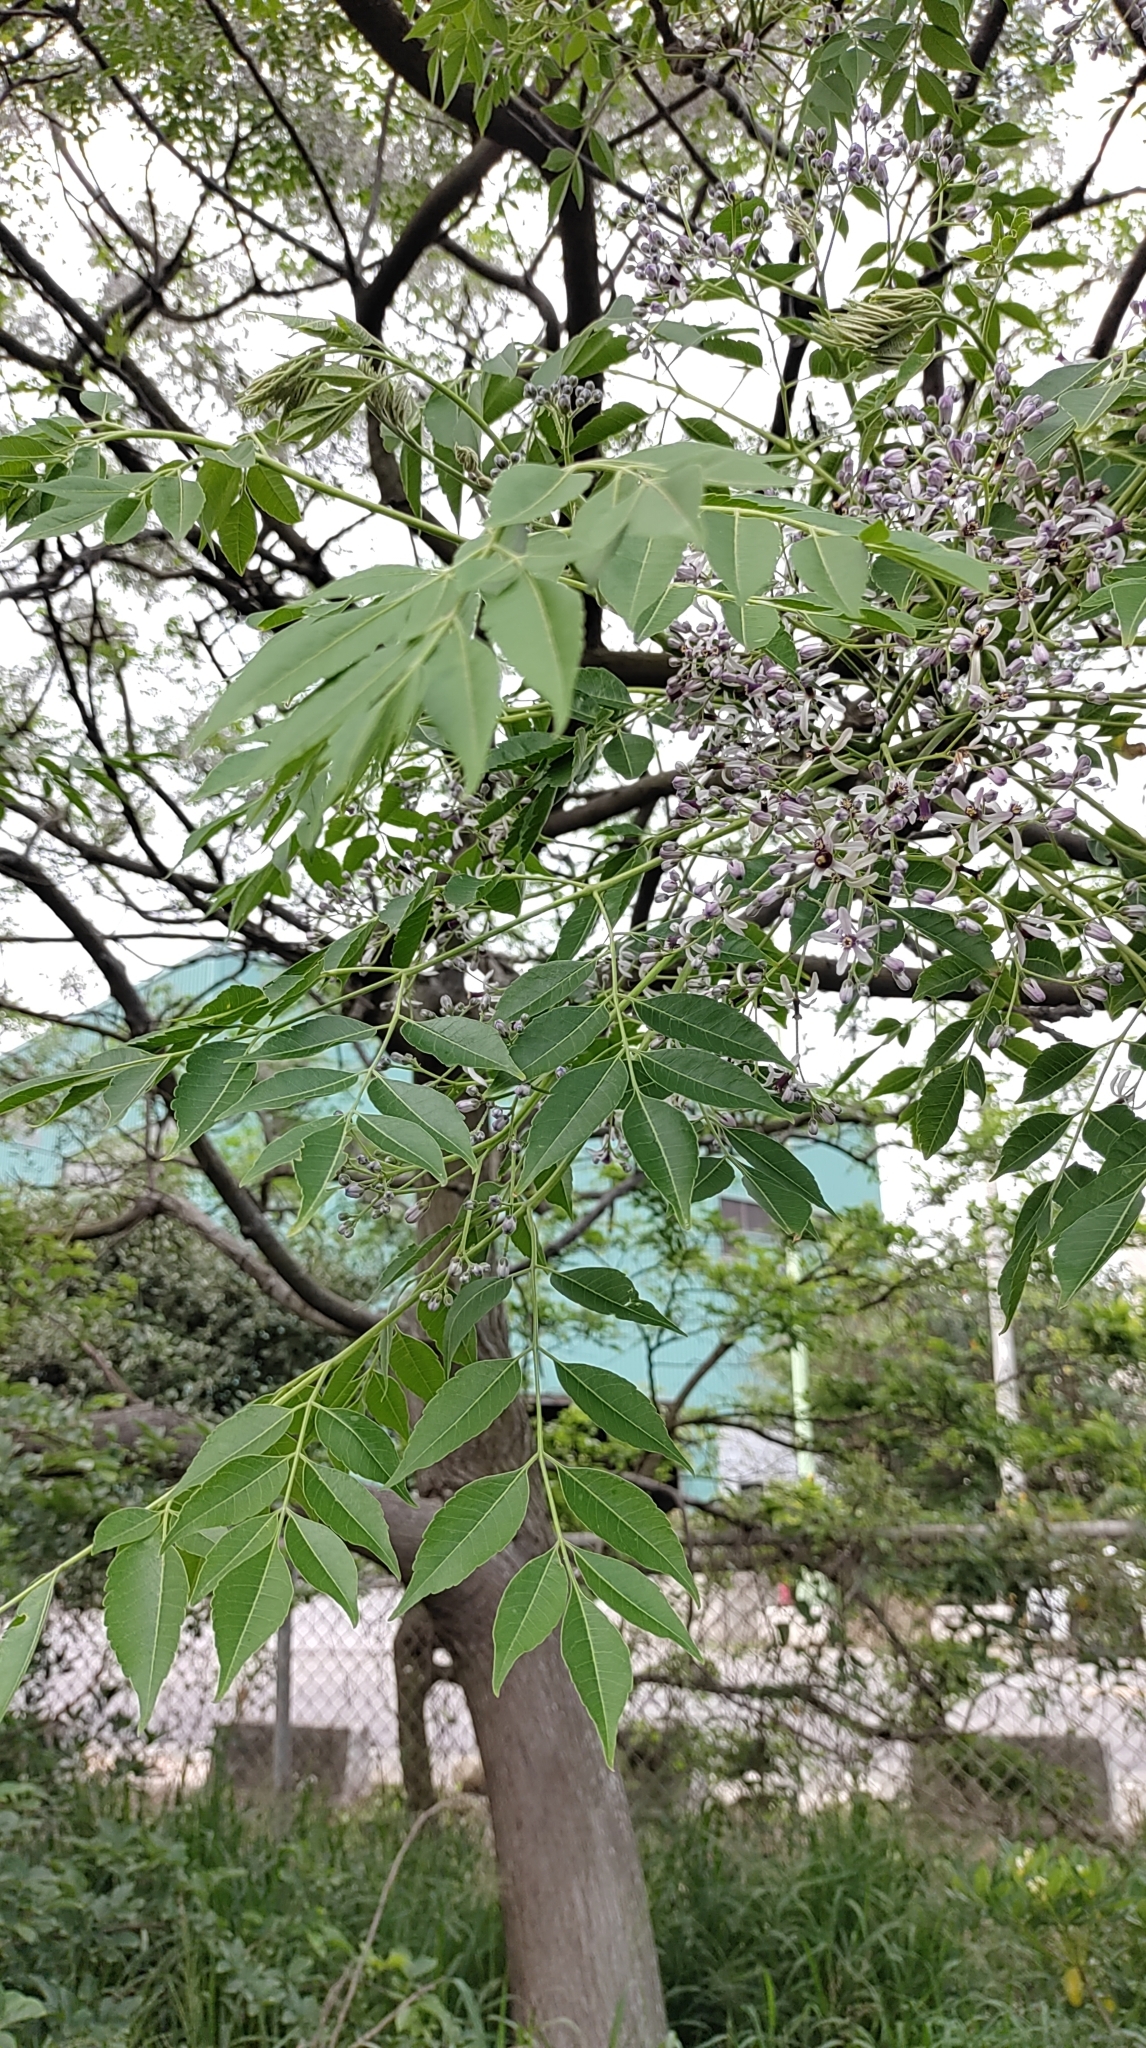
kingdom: Plantae
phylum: Tracheophyta
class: Magnoliopsida
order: Sapindales
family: Meliaceae
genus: Melia
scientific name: Melia azedarach
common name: Chinaberrytree
